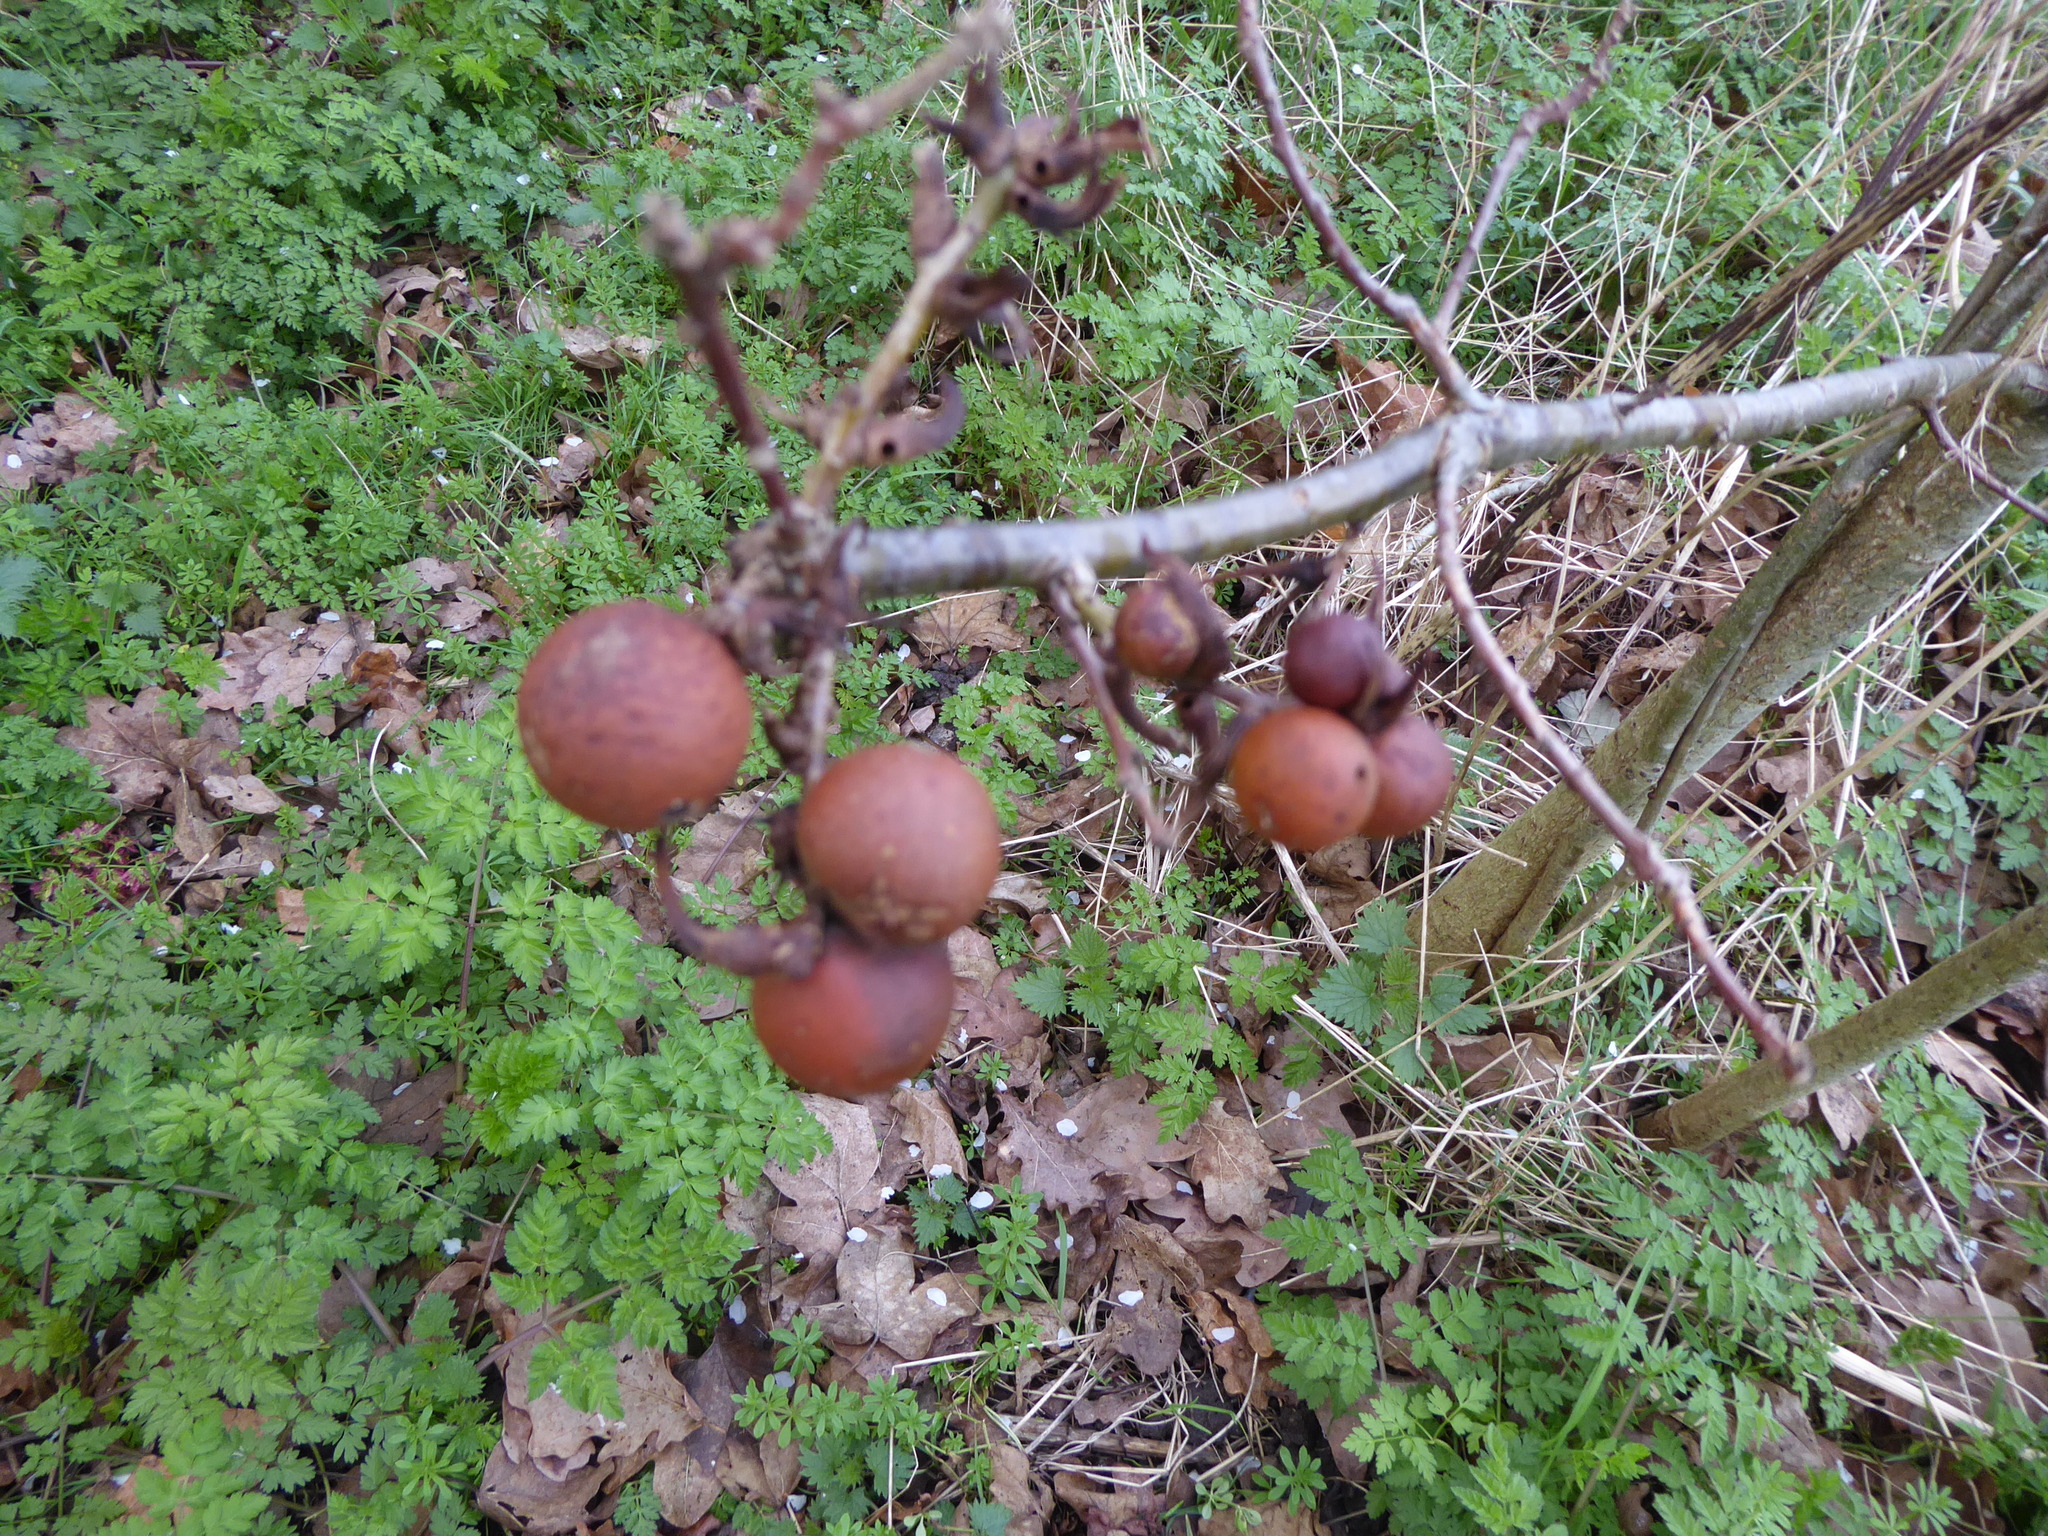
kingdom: Animalia
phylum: Arthropoda
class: Insecta
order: Hymenoptera
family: Cynipidae
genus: Andricus
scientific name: Andricus kollari
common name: Marble gall
